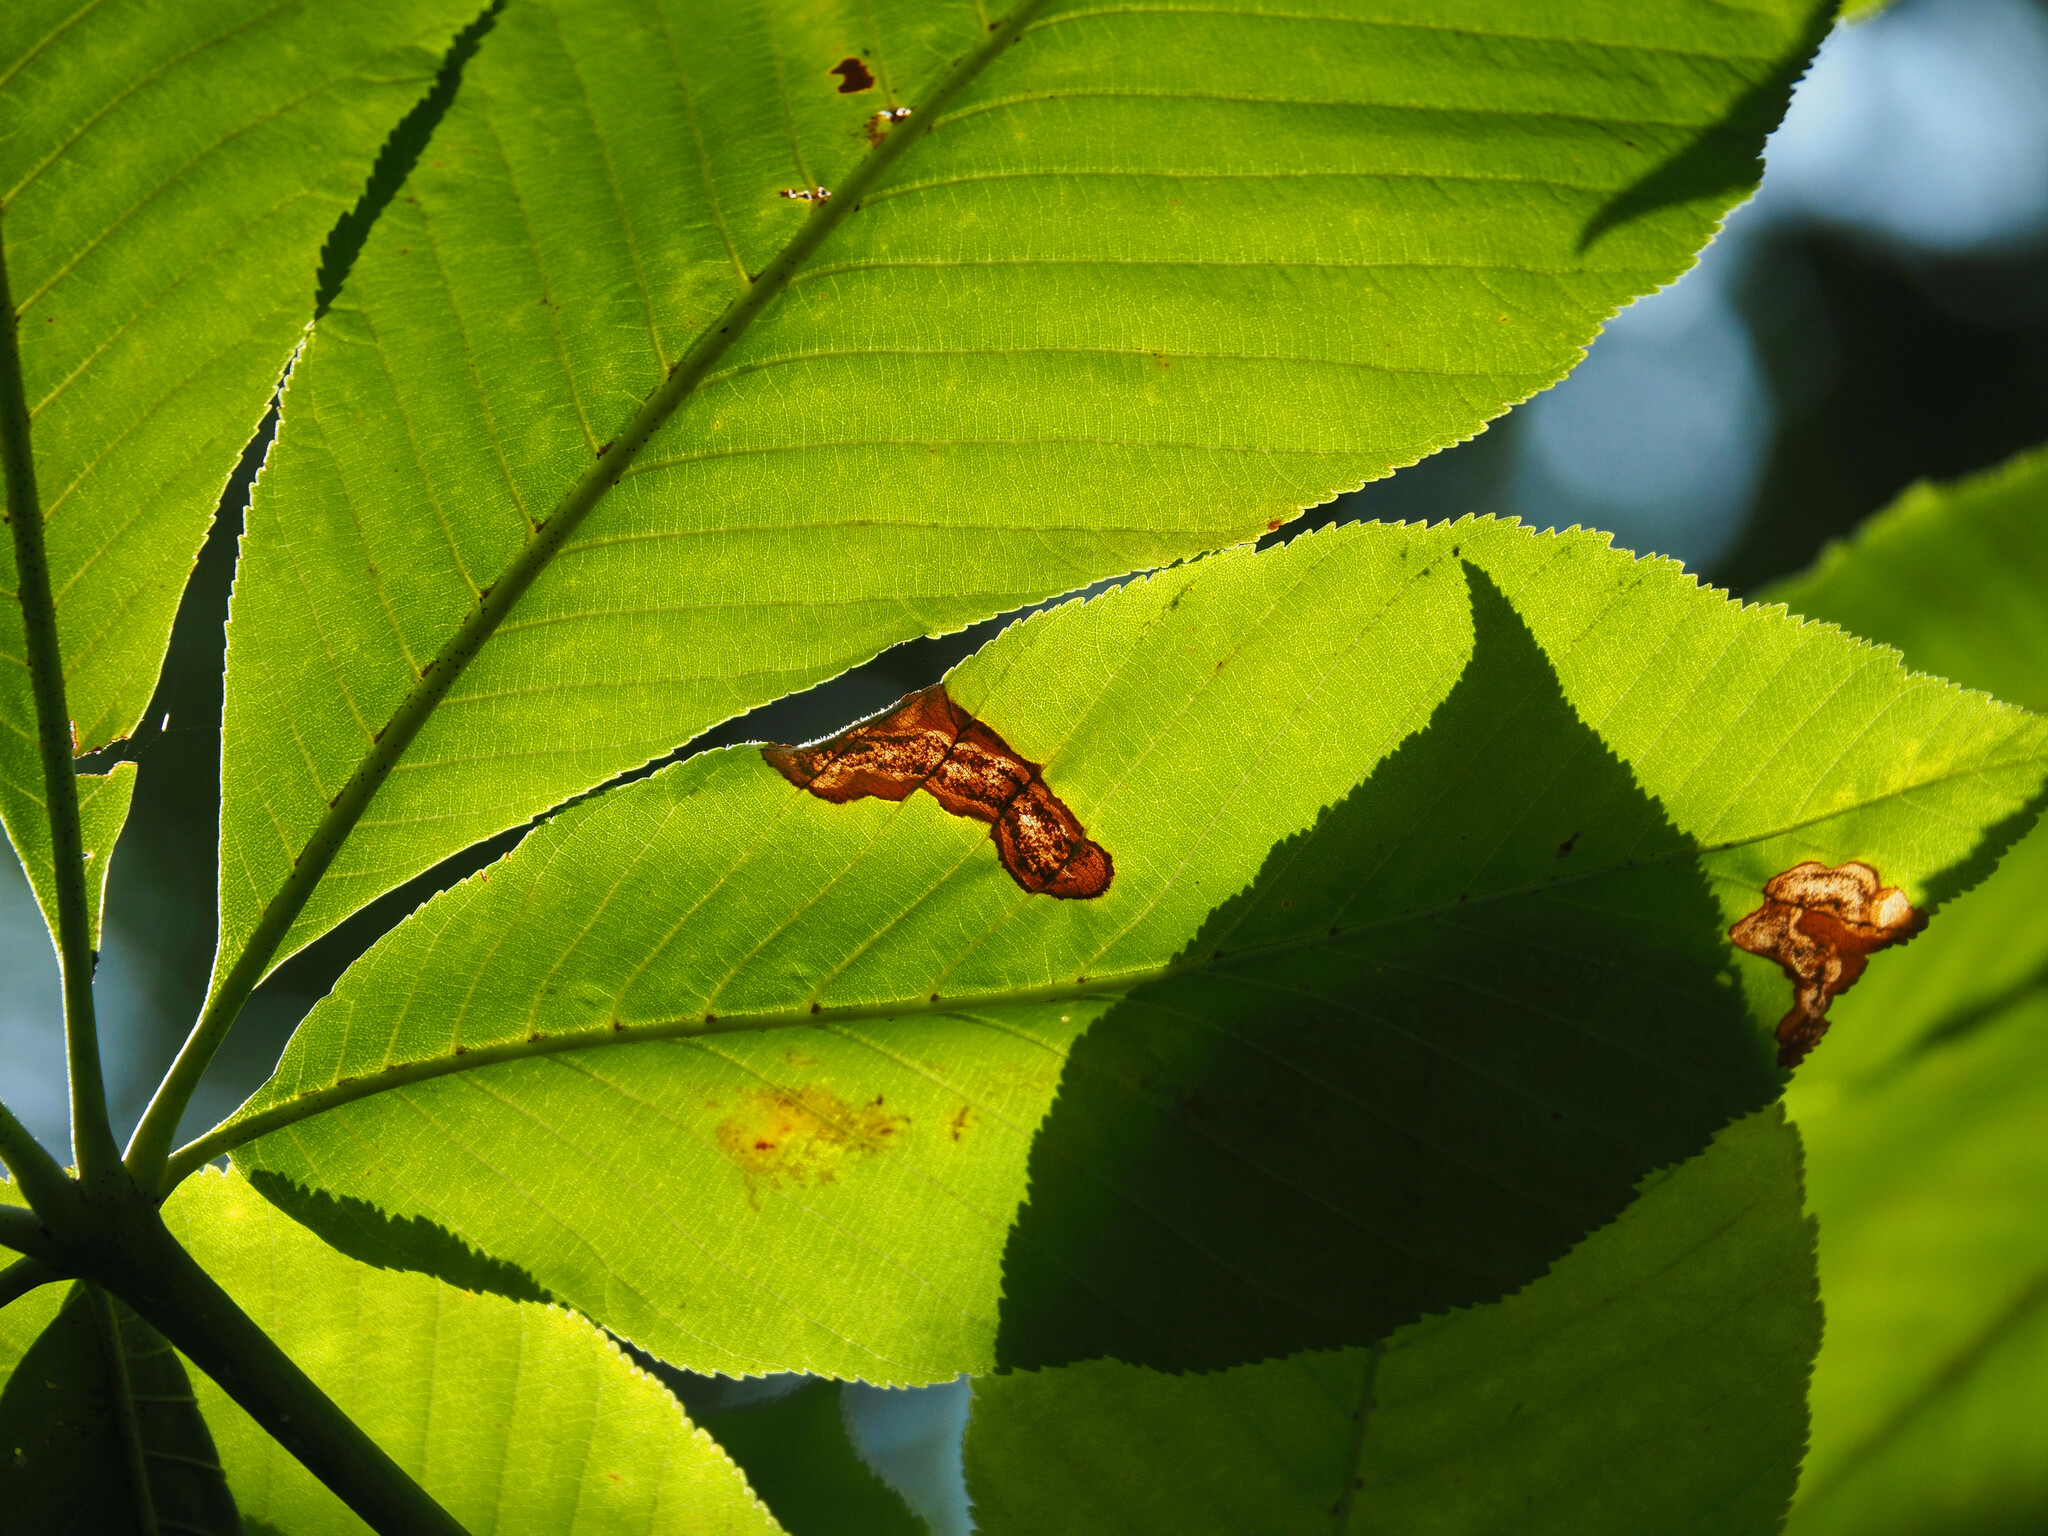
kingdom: Animalia
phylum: Arthropoda
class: Insecta
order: Lepidoptera
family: Gracillariidae
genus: Cameraria
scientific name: Cameraria aesculisella
